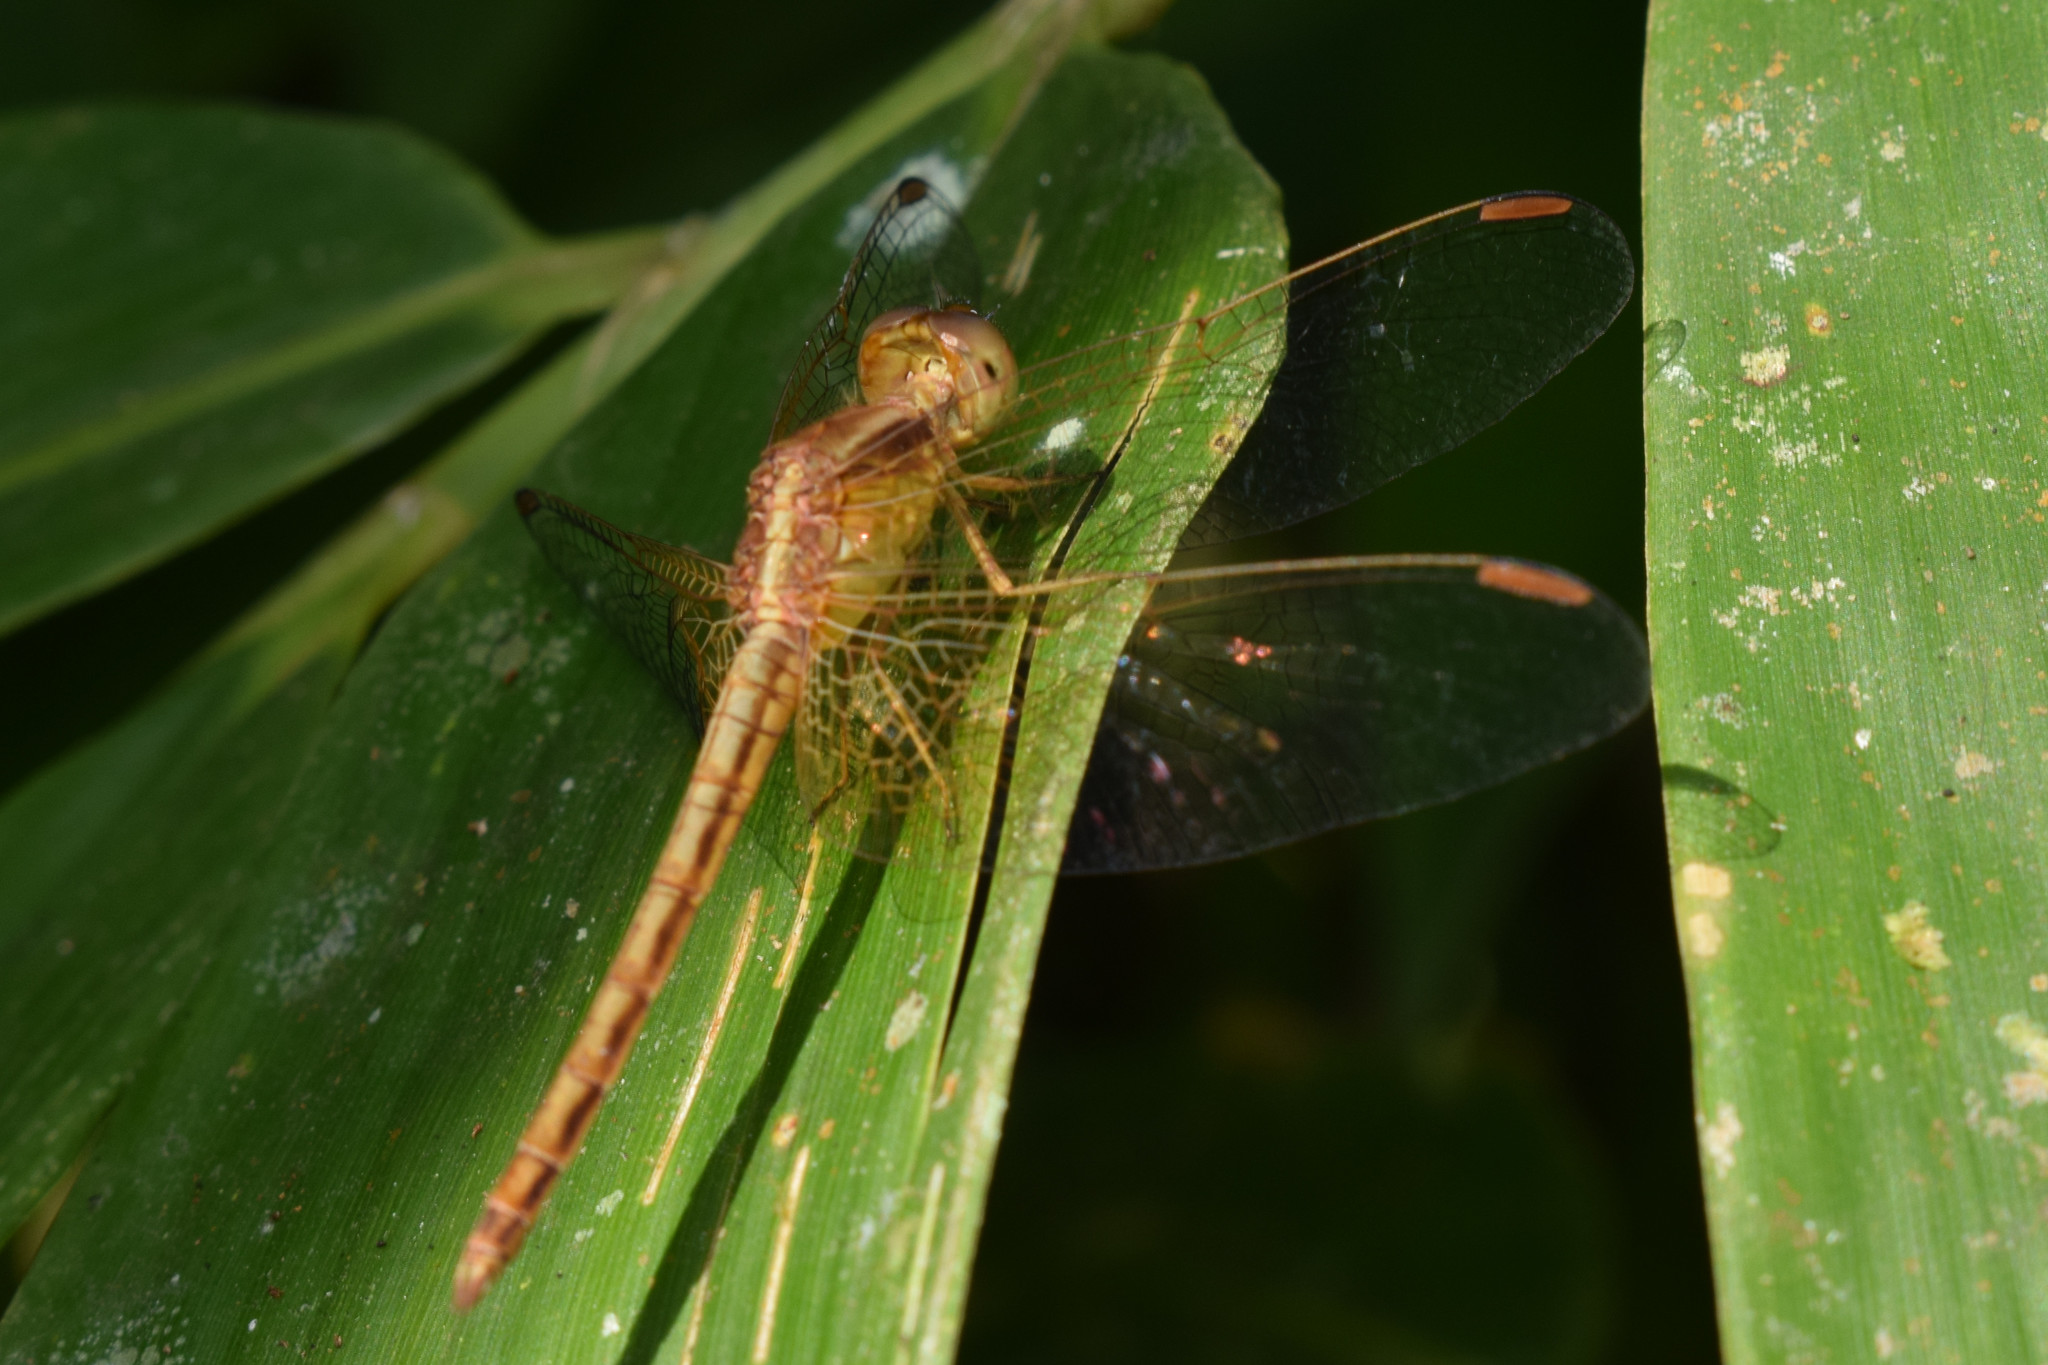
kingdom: Animalia
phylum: Arthropoda
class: Insecta
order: Odonata
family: Libellulidae
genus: Neurothemis
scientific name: Neurothemis intermedia
